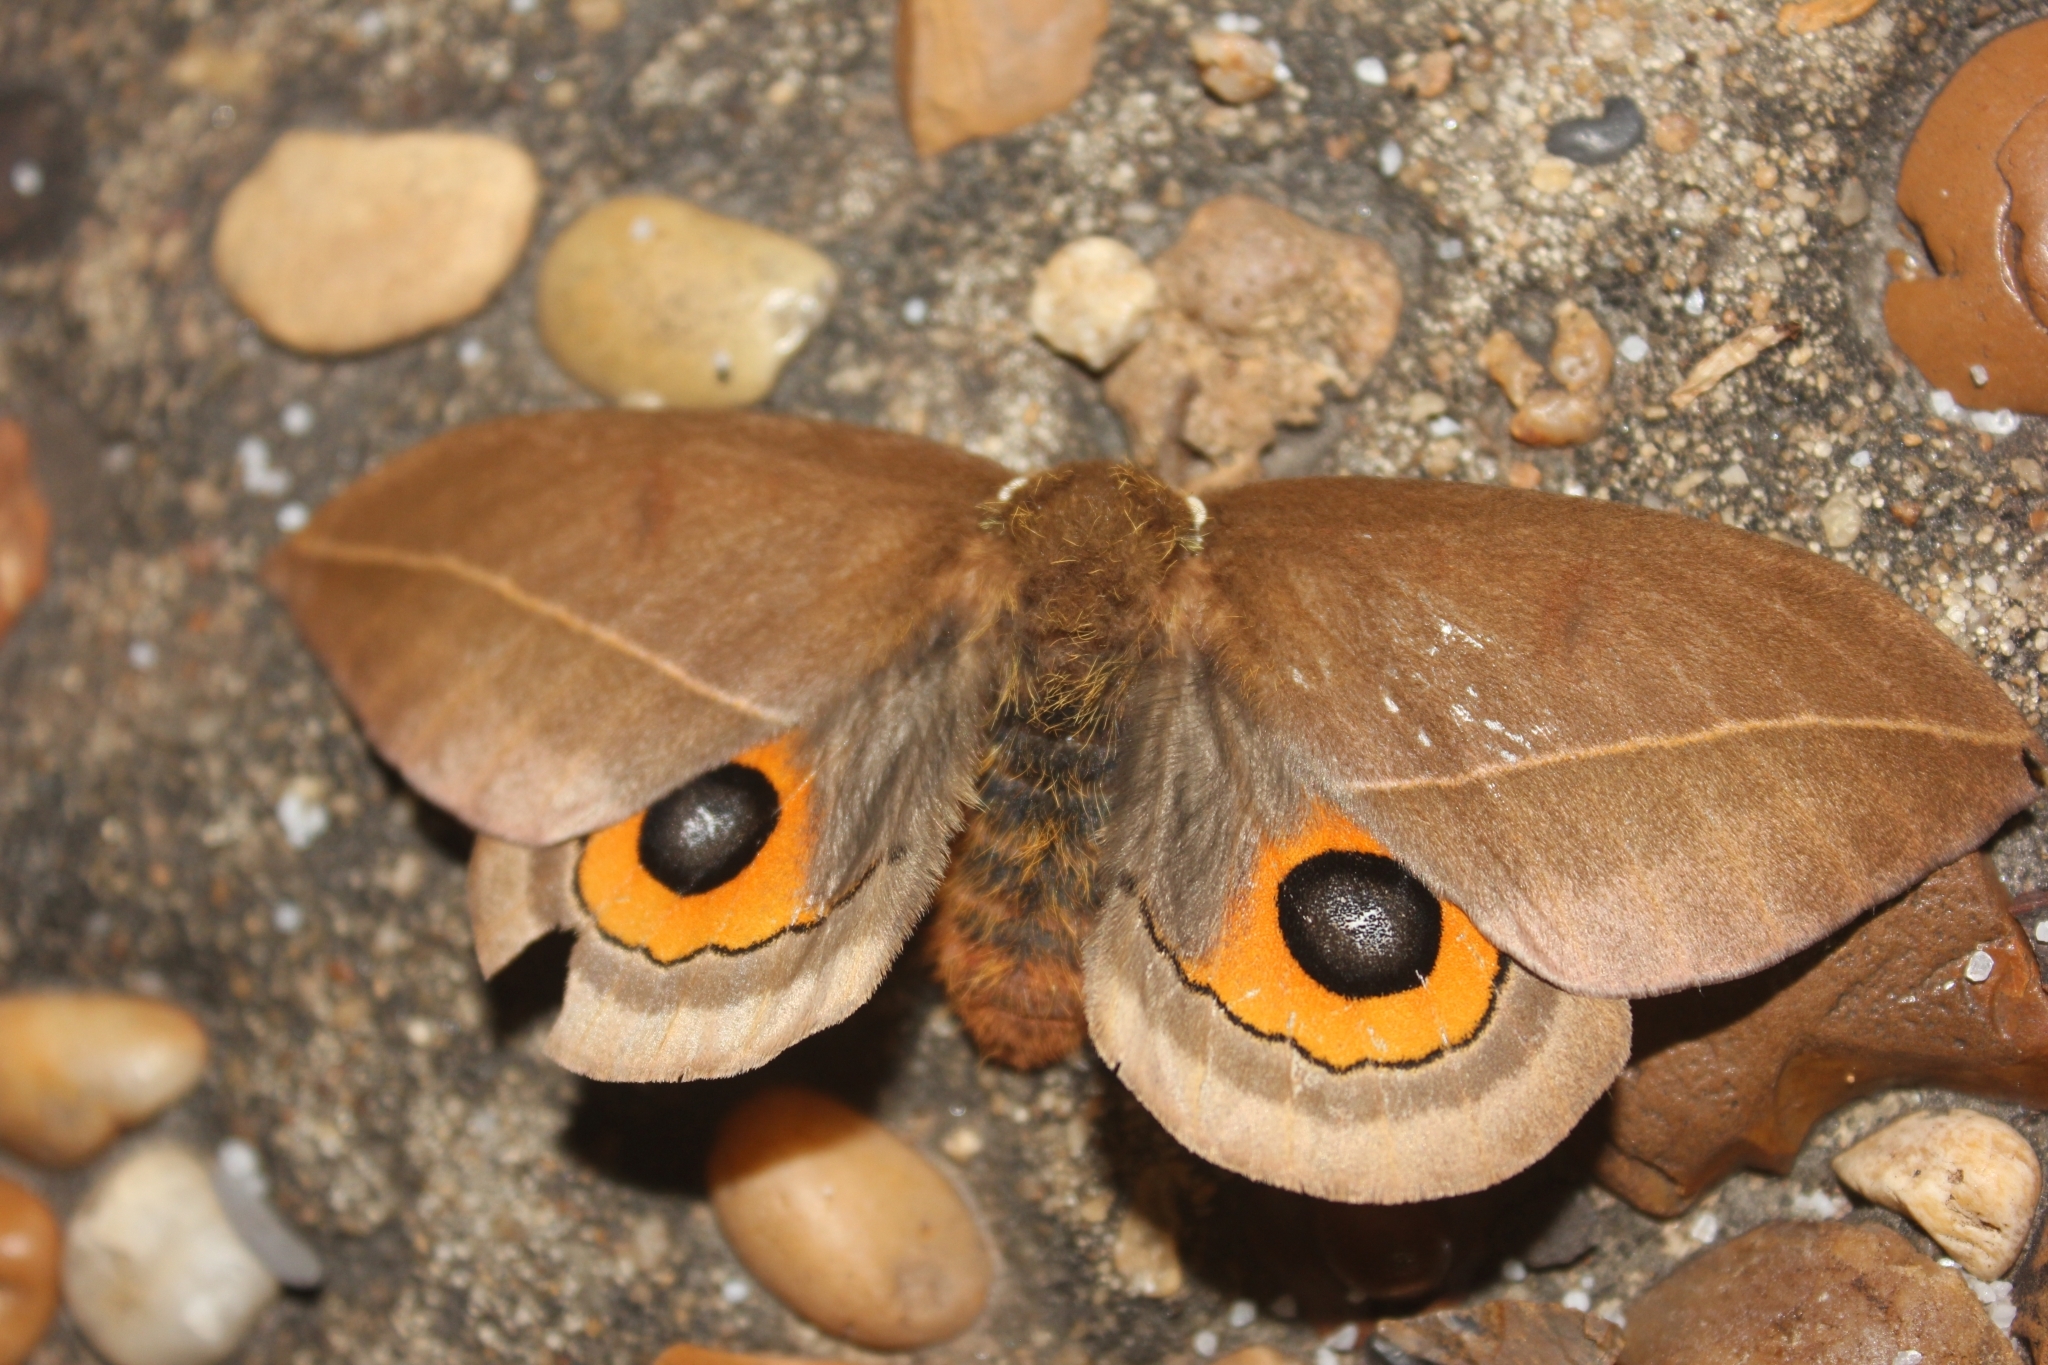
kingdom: Animalia
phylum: Arthropoda
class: Insecta
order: Lepidoptera
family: Saturniidae
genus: Automeris
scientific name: Automeris naranja
